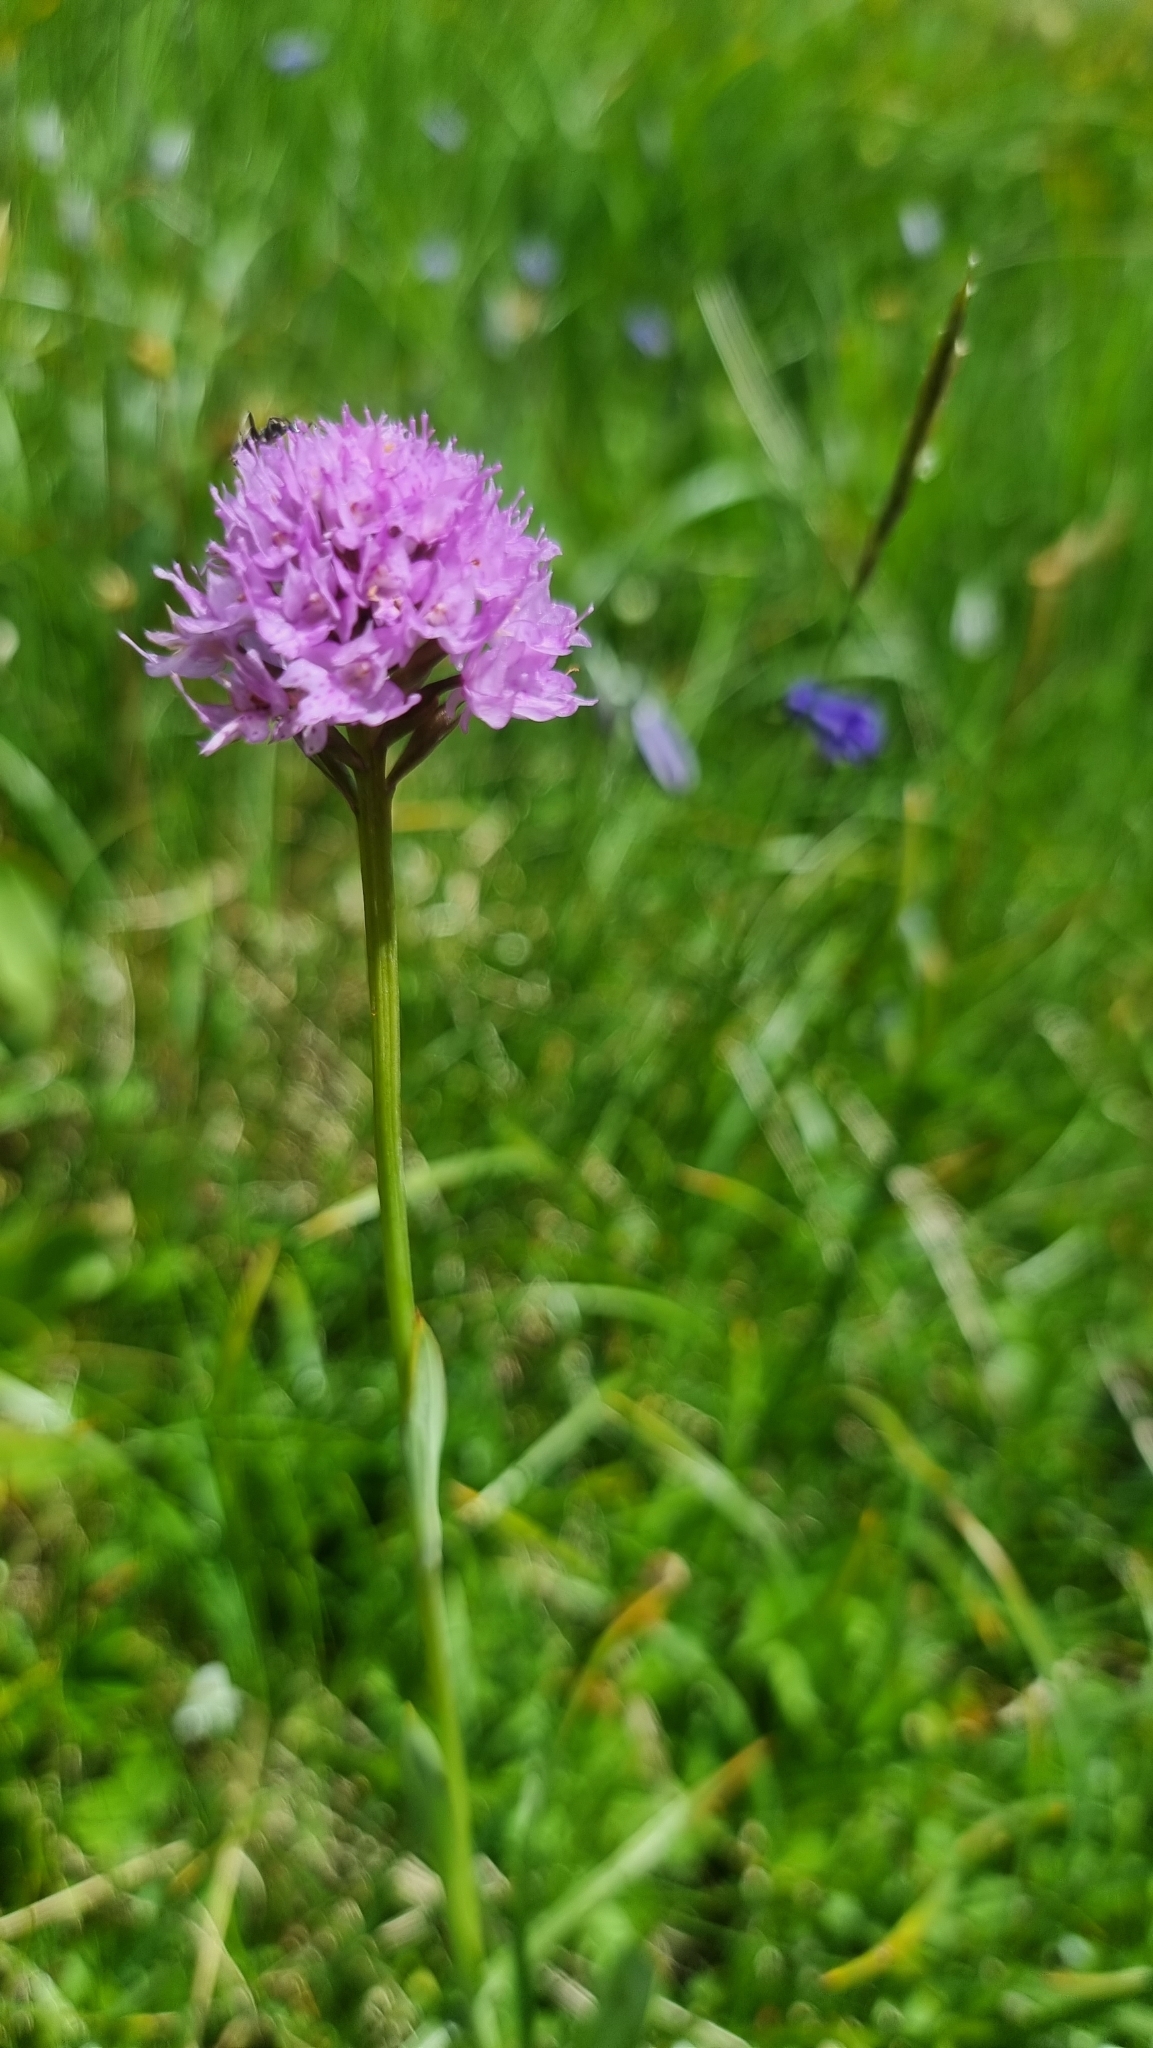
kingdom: Plantae
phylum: Tracheophyta
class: Liliopsida
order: Asparagales
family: Orchidaceae
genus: Traunsteinera
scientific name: Traunsteinera globosa
